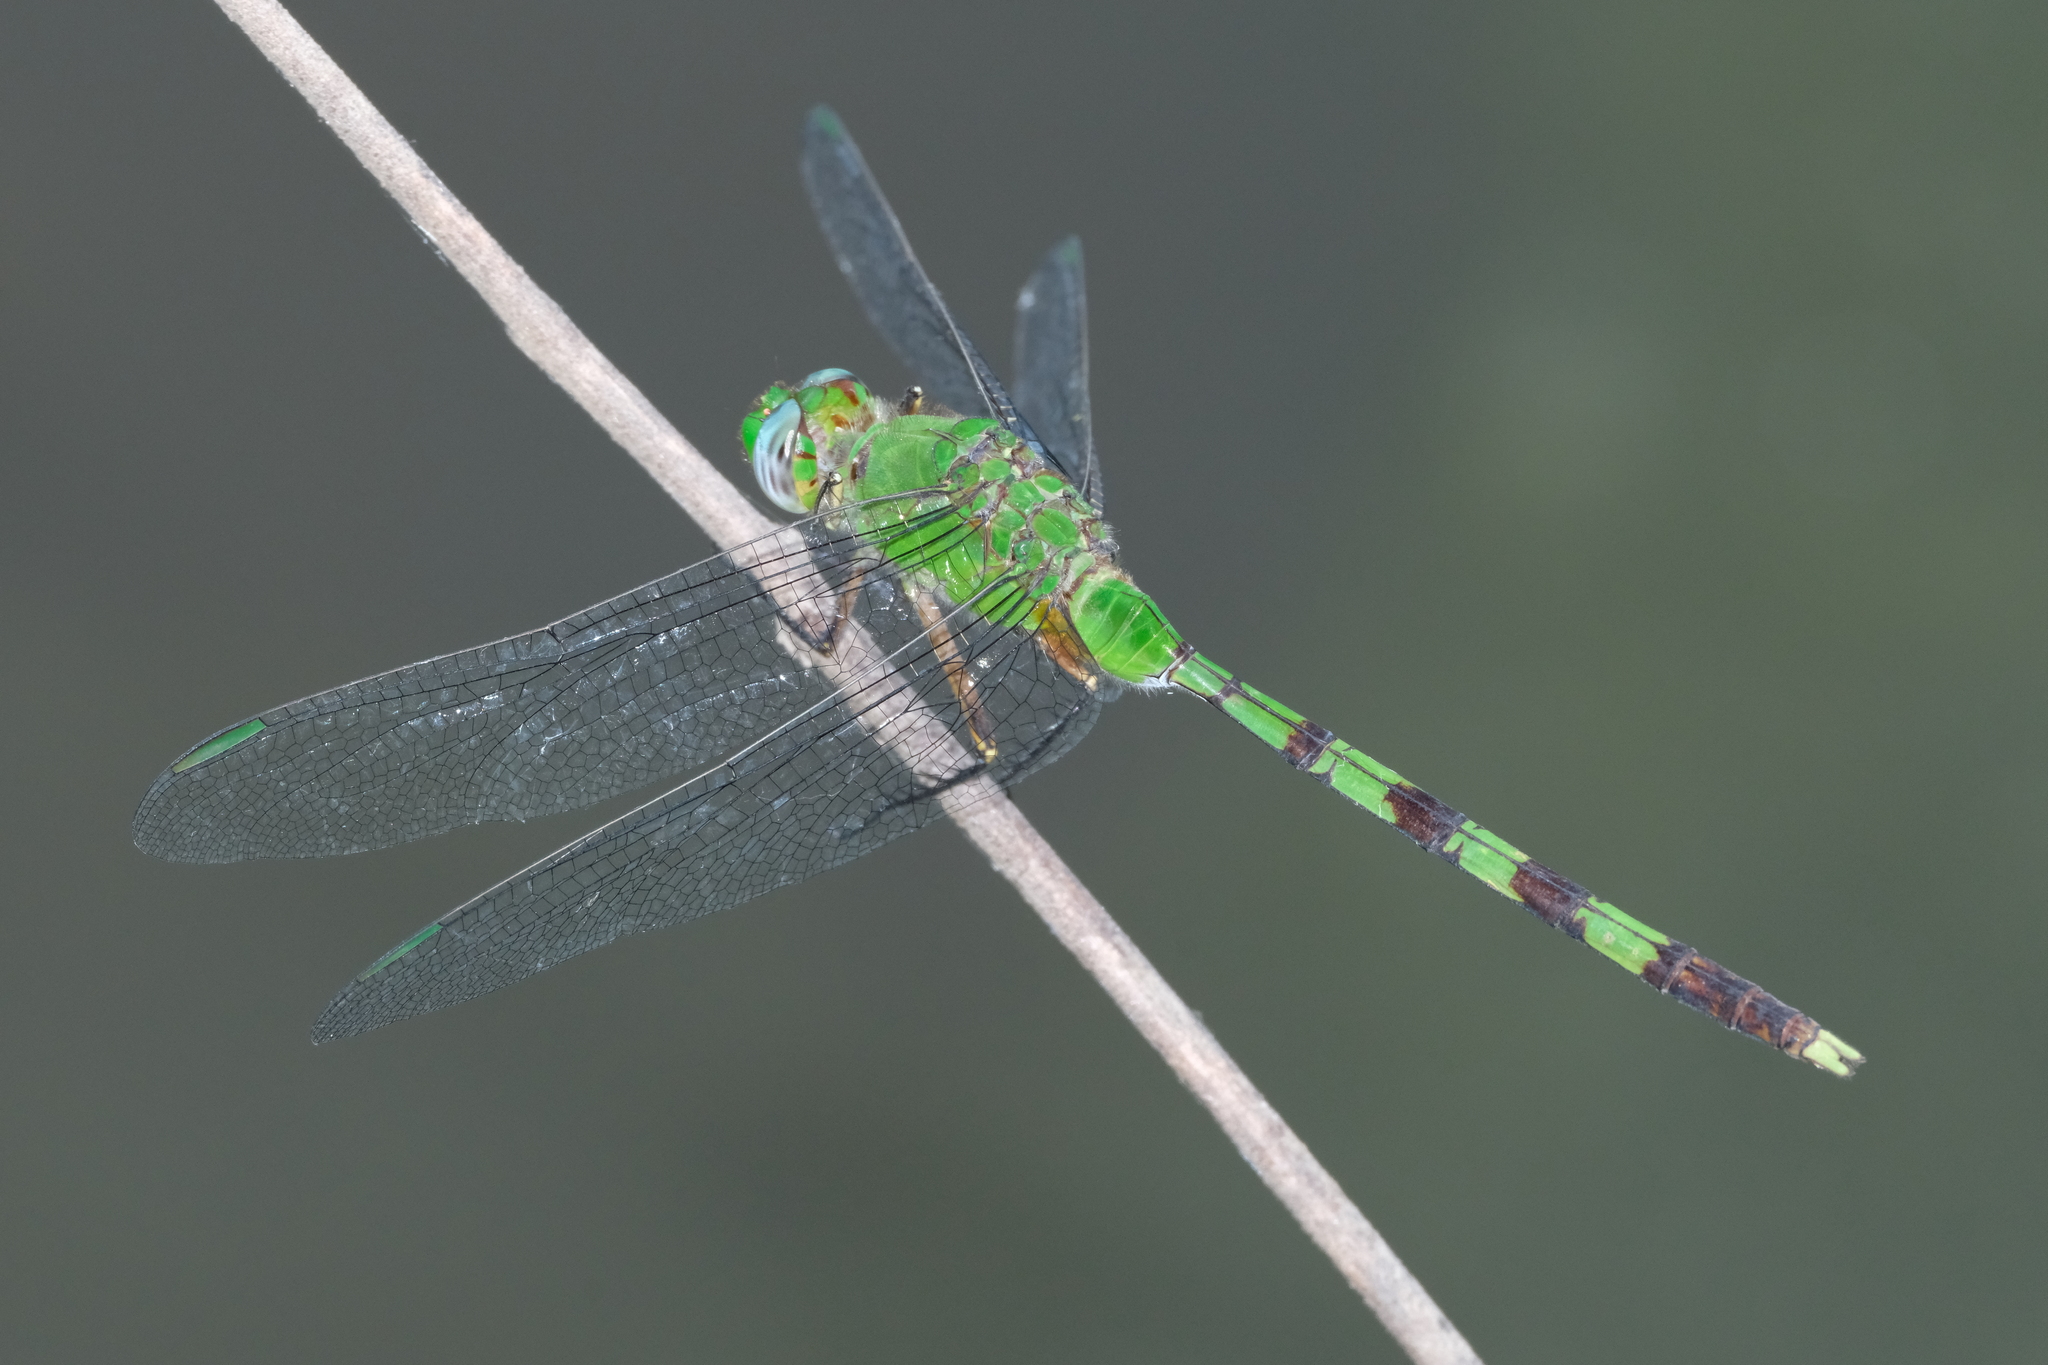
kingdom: Animalia
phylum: Arthropoda
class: Insecta
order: Odonata
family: Libellulidae
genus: Erythemis
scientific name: Erythemis vesiculosa
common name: Great pondhawk
